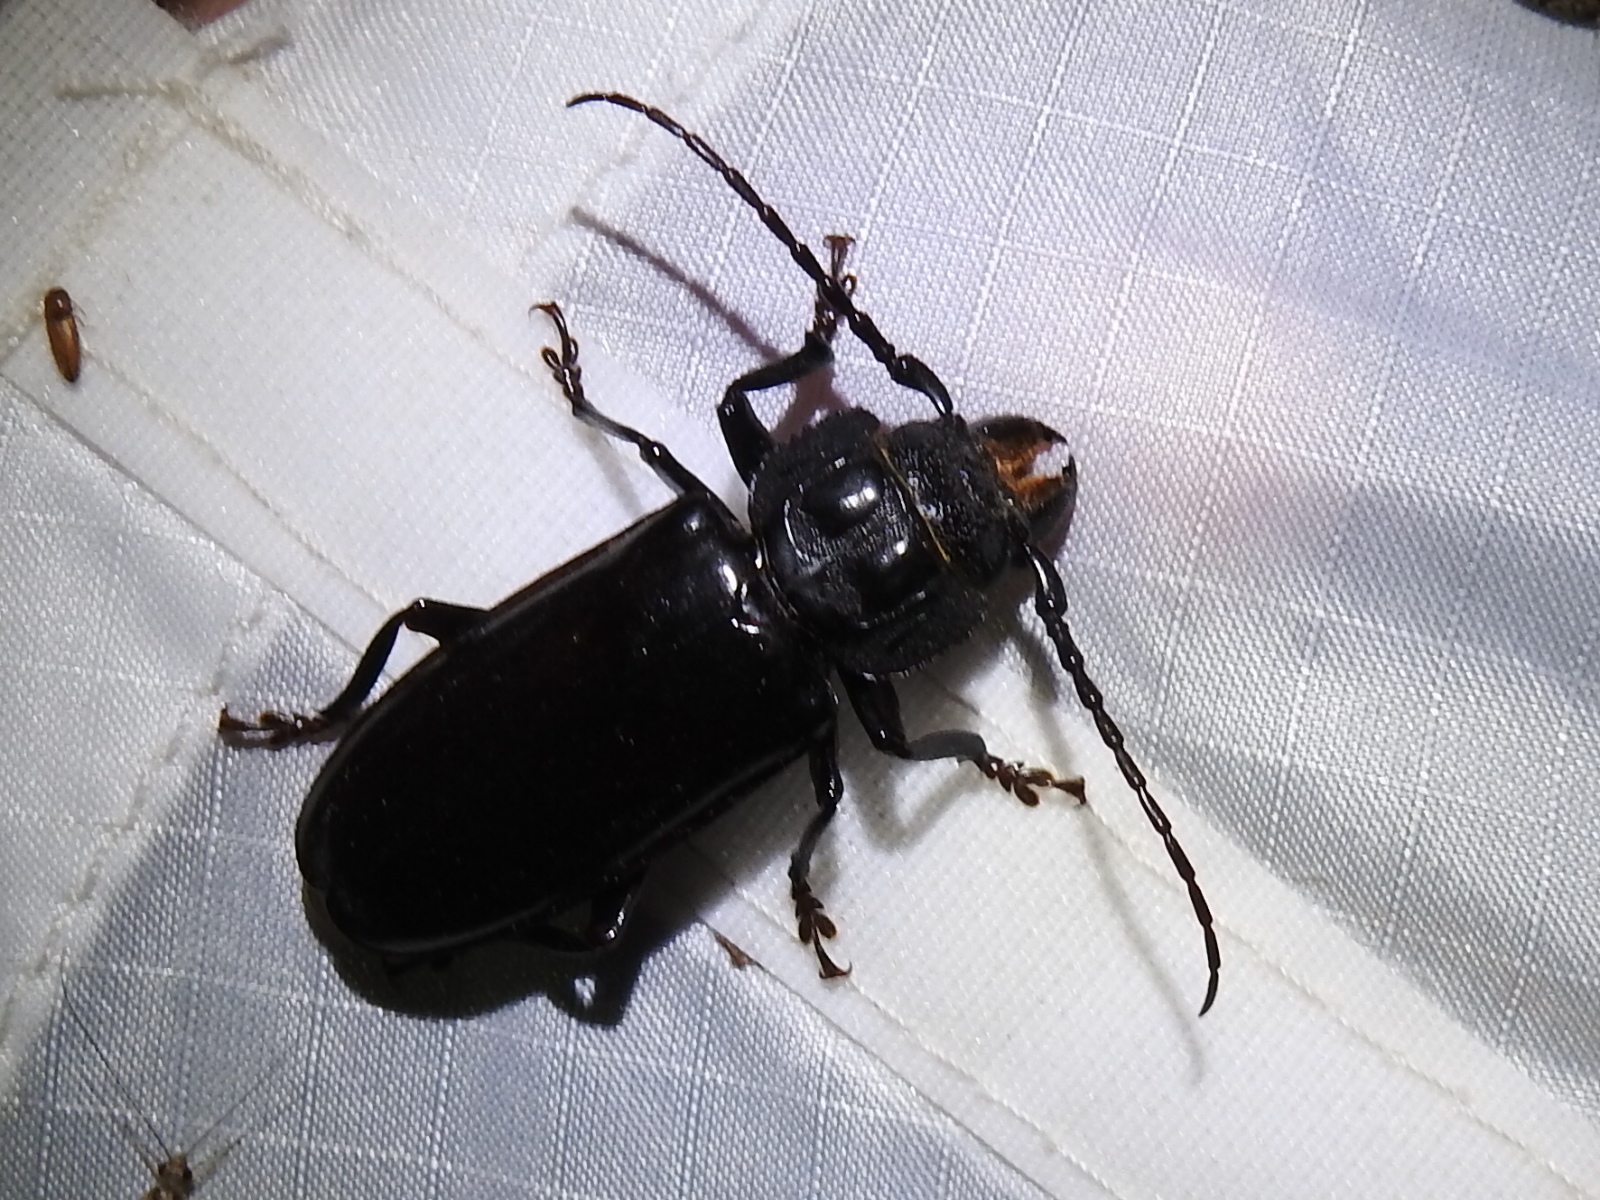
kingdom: Animalia
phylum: Arthropoda
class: Insecta
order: Coleoptera
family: Cerambycidae
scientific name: Cerambycidae
